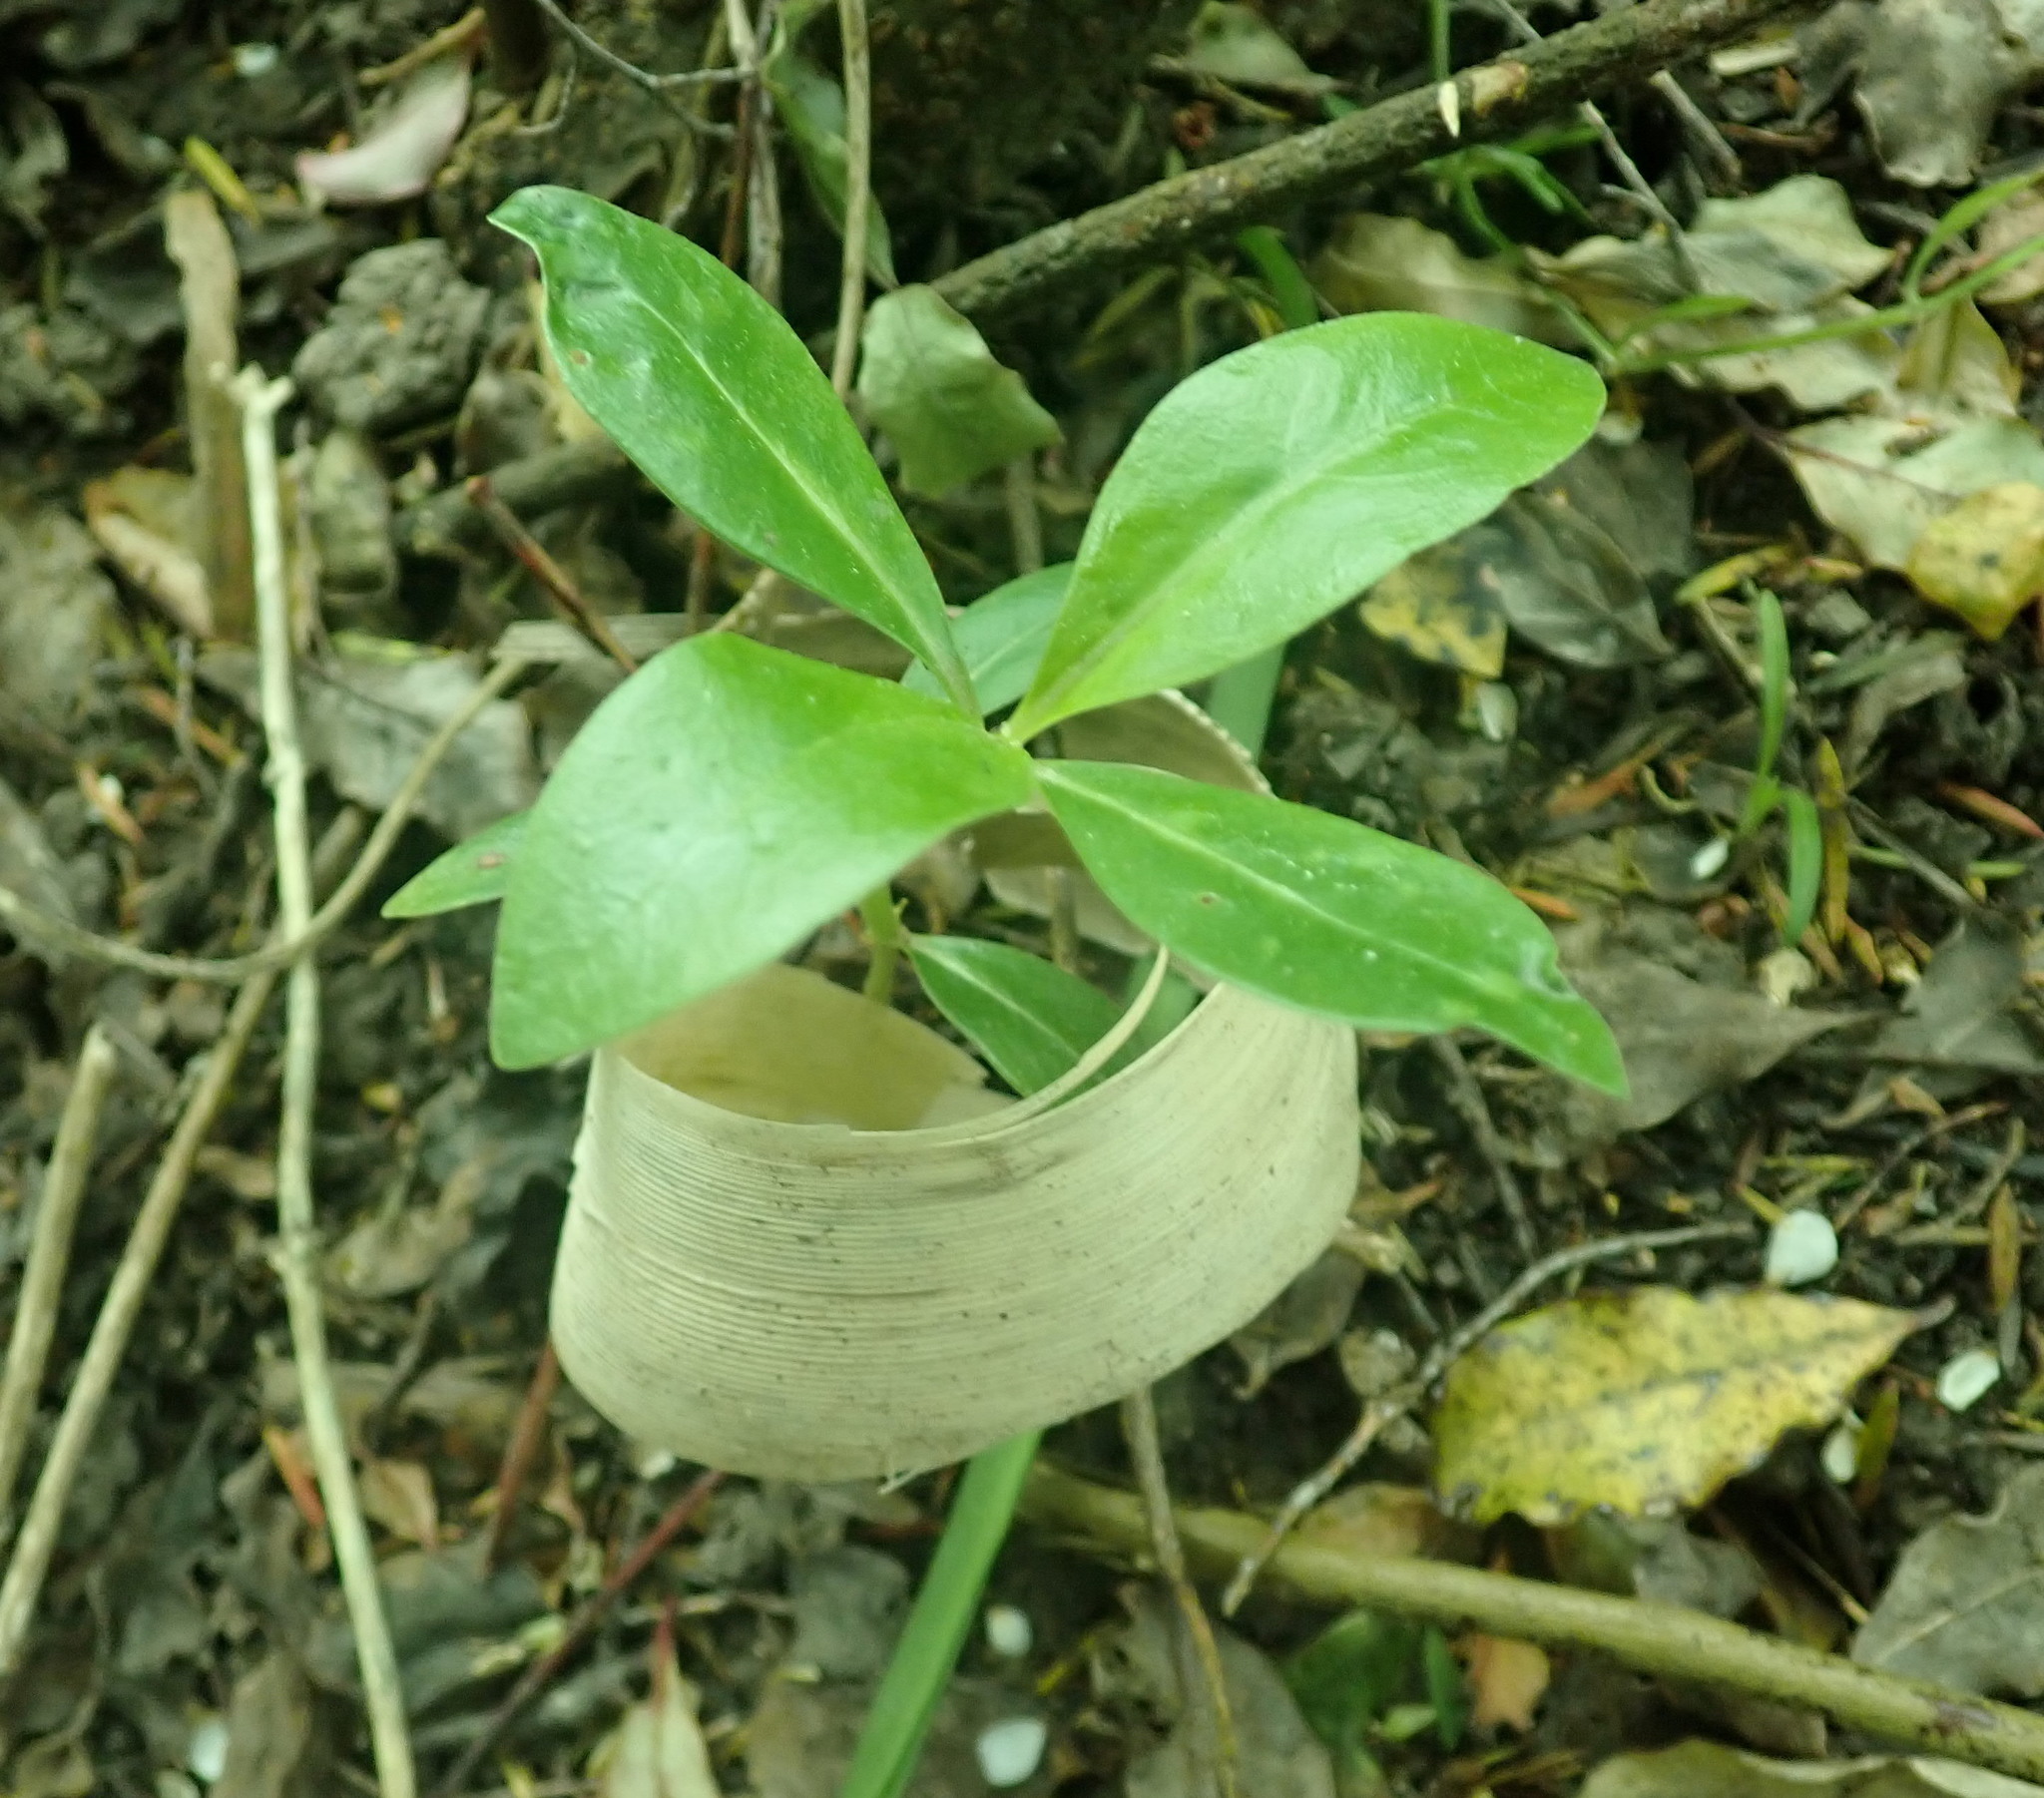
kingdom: Plantae
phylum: Tracheophyta
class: Magnoliopsida
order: Gentianales
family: Rubiaceae
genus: Coprosma
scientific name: Coprosma robusta
